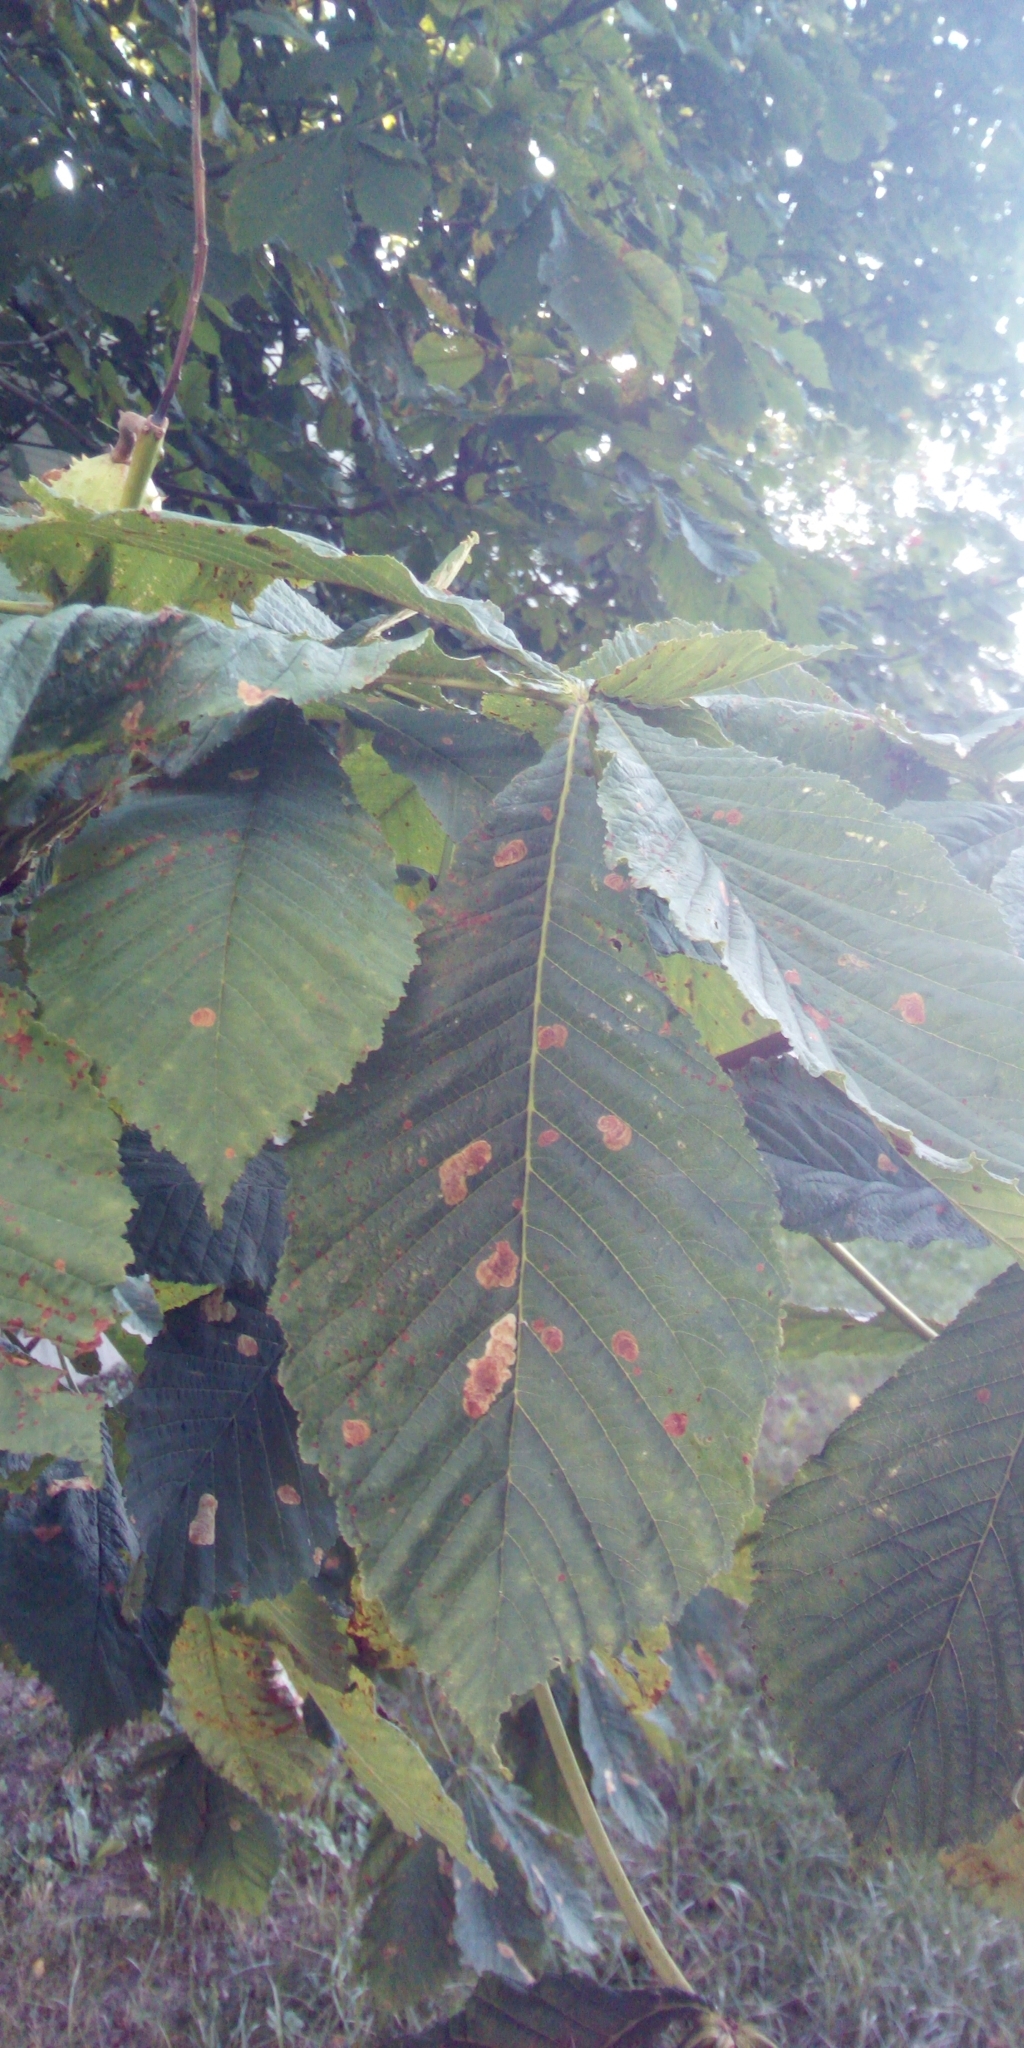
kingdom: Animalia
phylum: Arthropoda
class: Insecta
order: Lepidoptera
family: Gracillariidae
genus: Cameraria
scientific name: Cameraria ohridella
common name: Horse-chestnut leaf-miner
